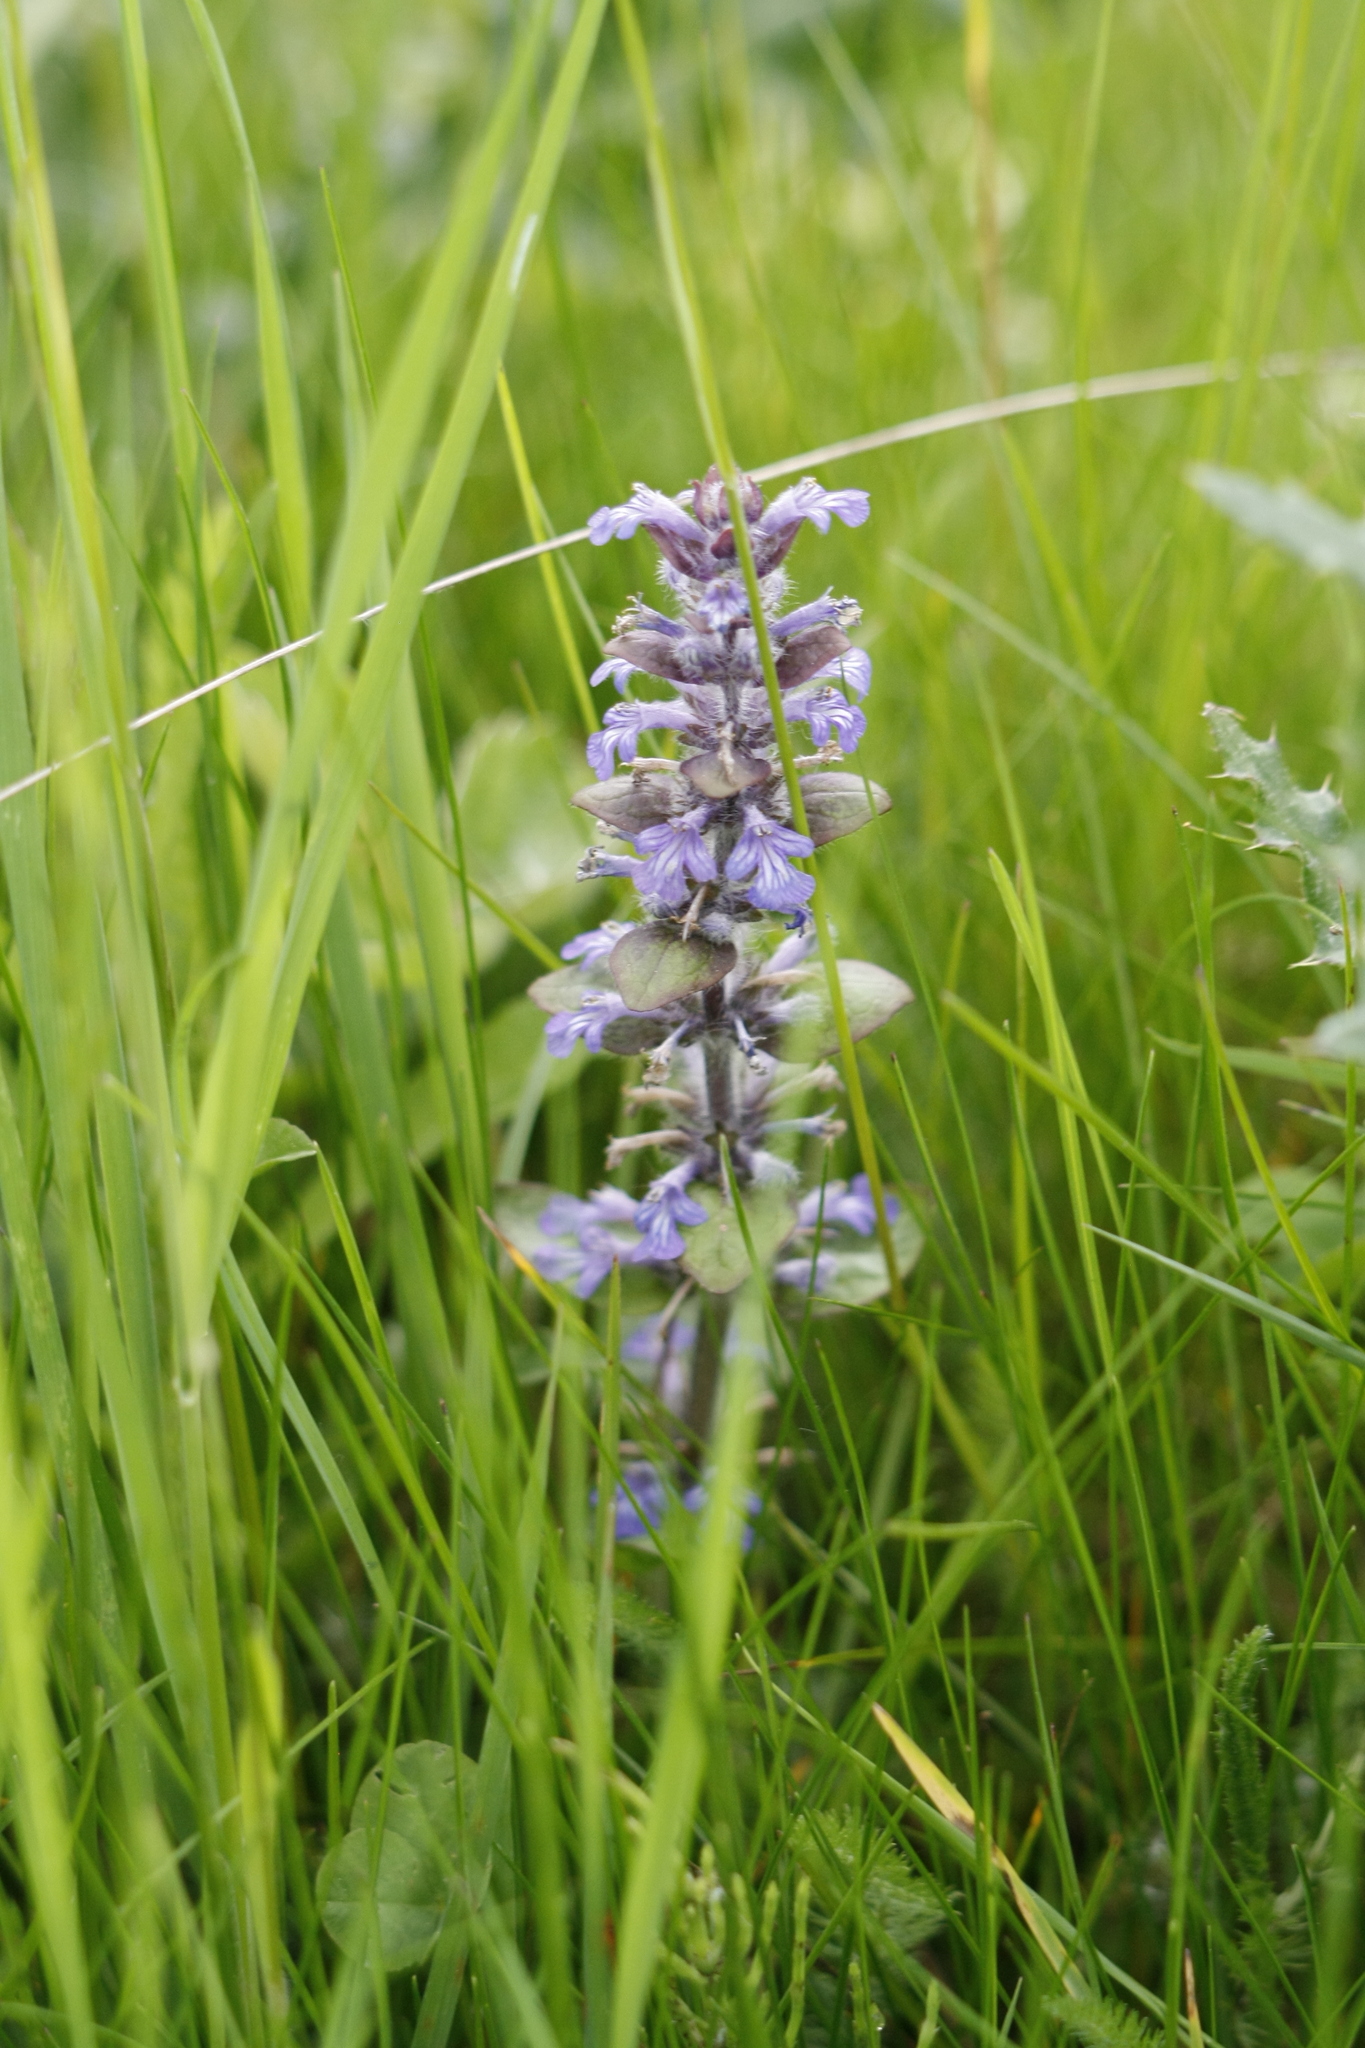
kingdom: Plantae
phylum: Tracheophyta
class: Magnoliopsida
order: Lamiales
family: Lamiaceae
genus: Ajuga
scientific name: Ajuga reptans
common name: Bugle
